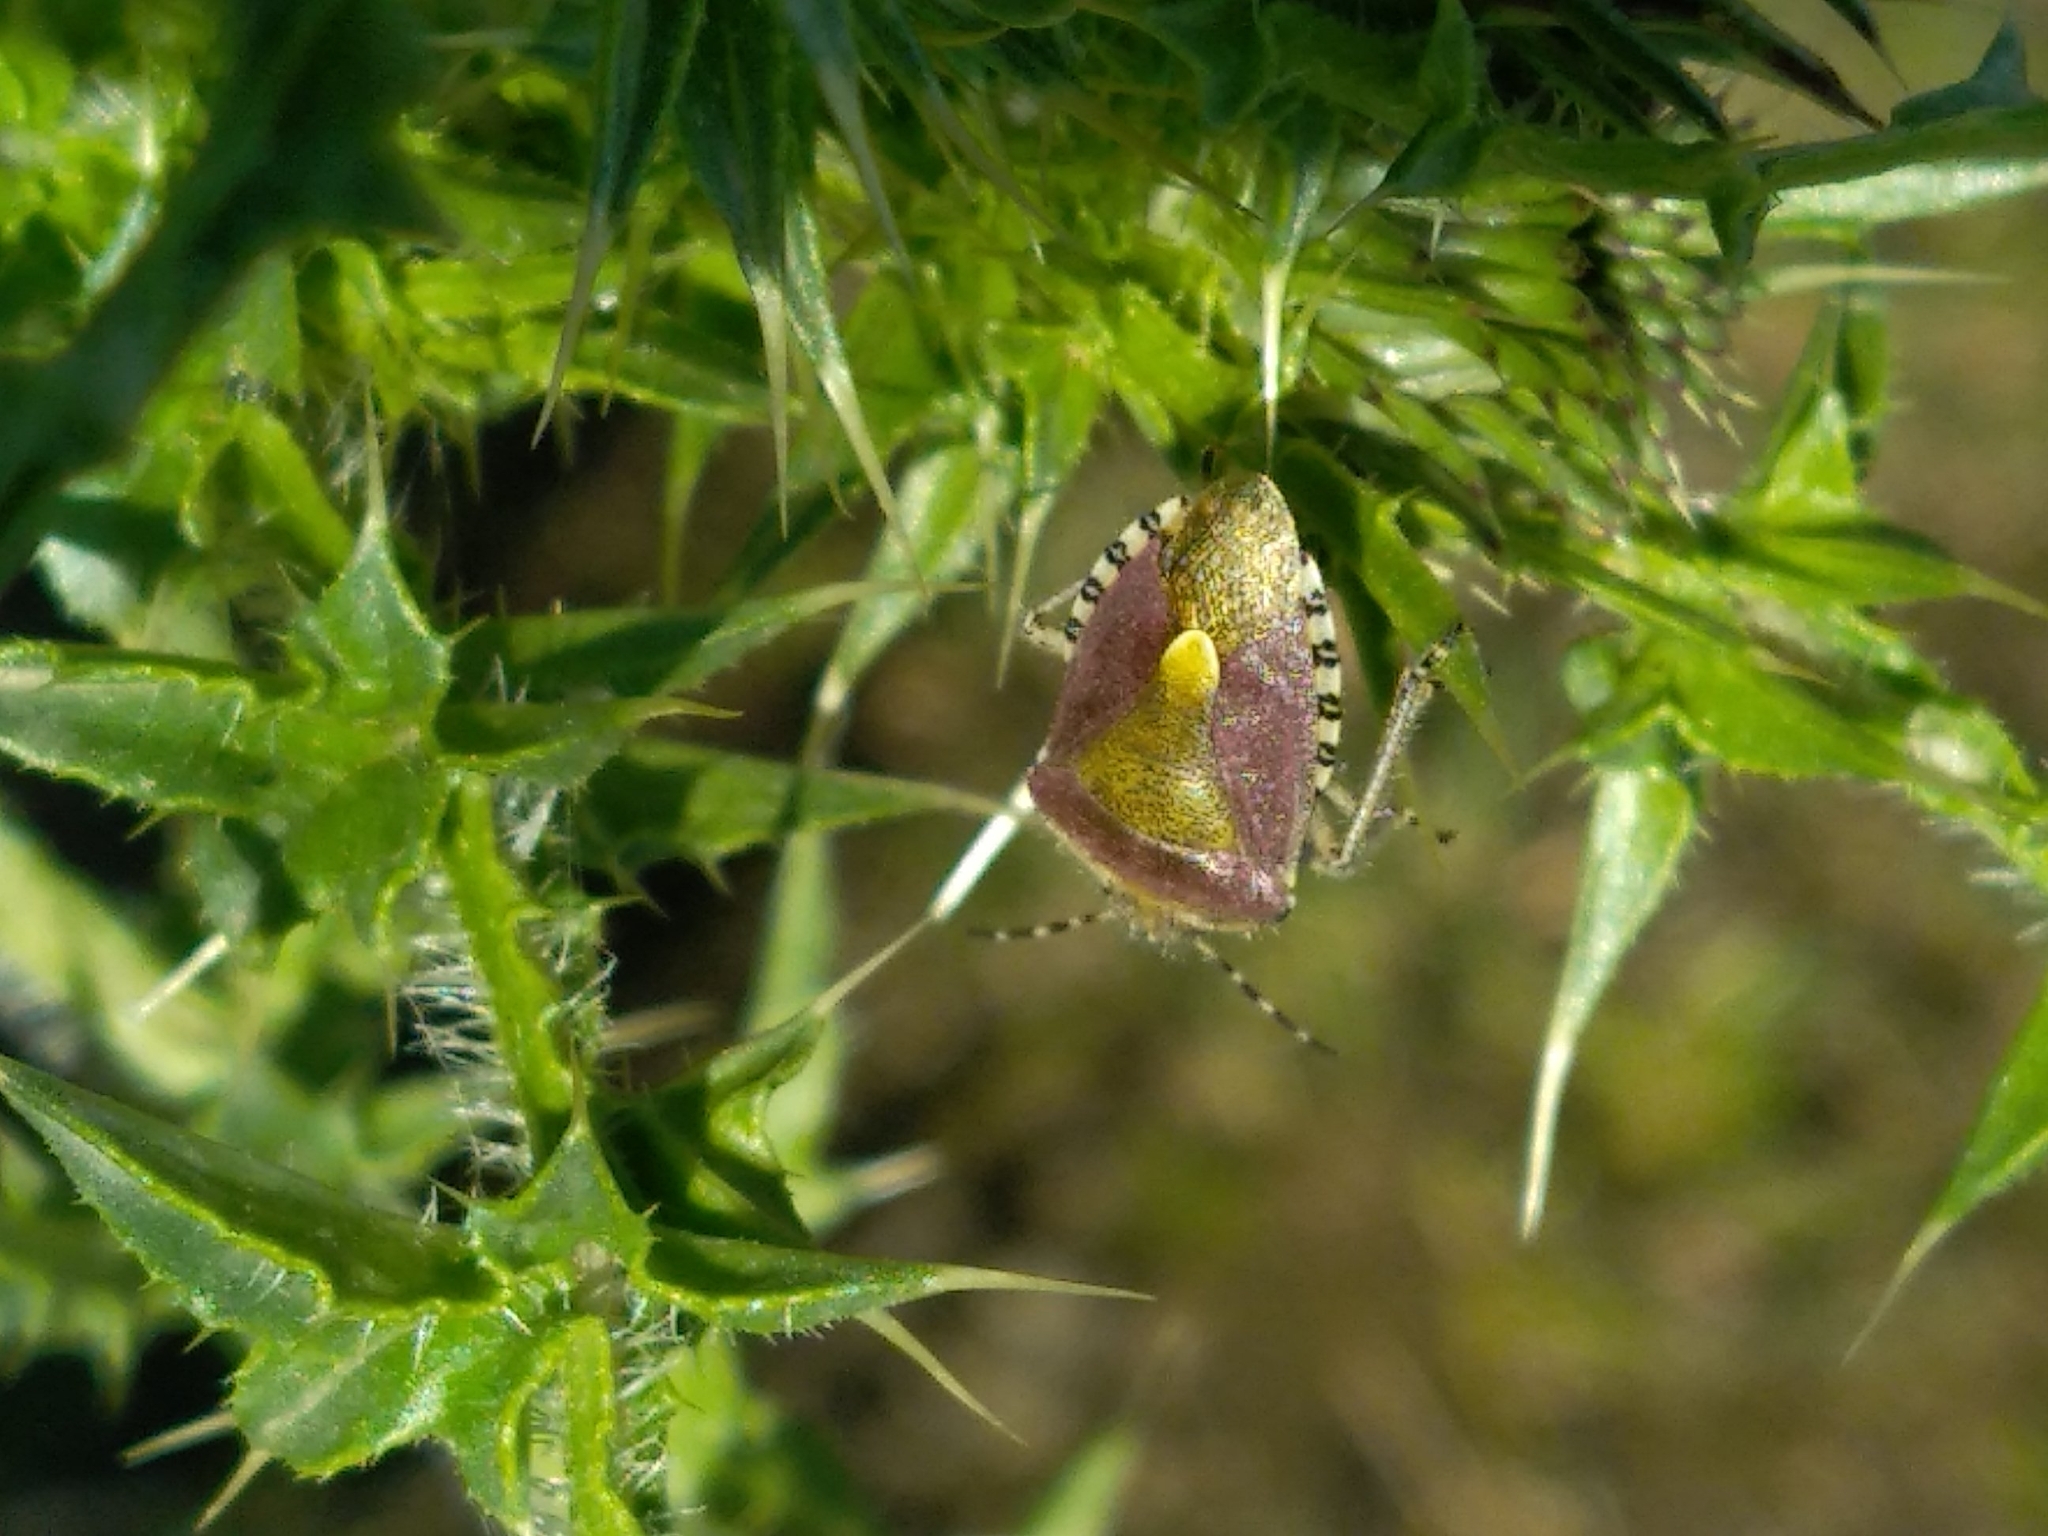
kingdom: Animalia
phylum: Arthropoda
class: Insecta
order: Hemiptera
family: Pentatomidae
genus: Dolycoris
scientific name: Dolycoris baccarum
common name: Sloe bug
